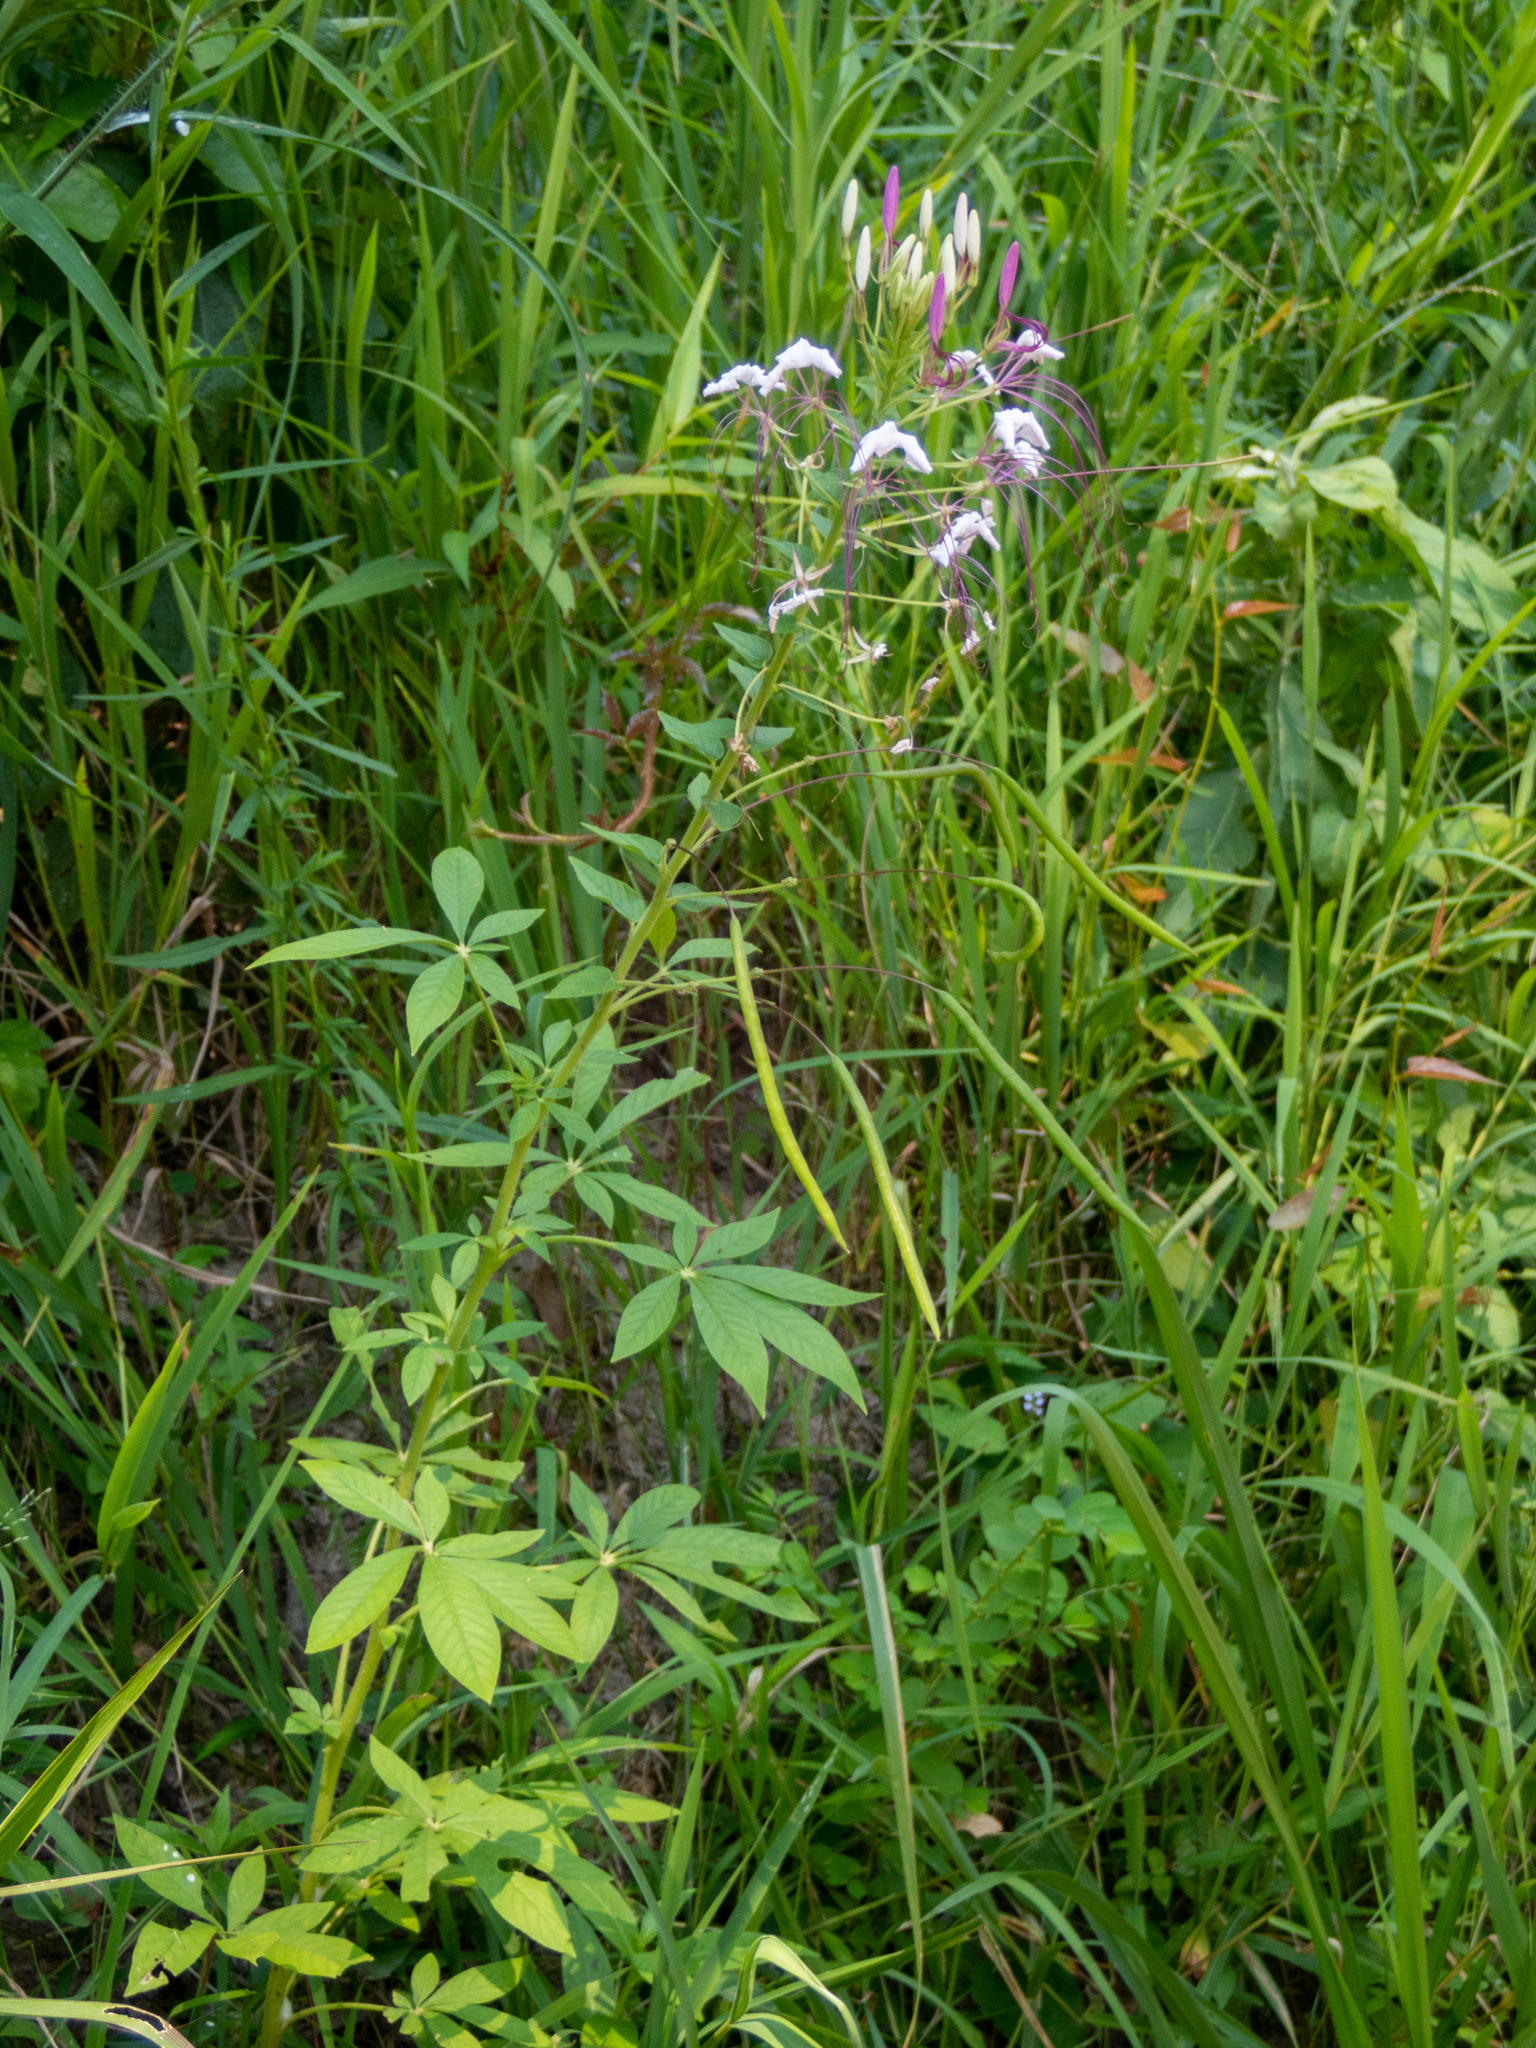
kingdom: Plantae
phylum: Tracheophyta
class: Magnoliopsida
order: Brassicales
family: Cleomaceae
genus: Tarenaya
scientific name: Tarenaya houtteana
